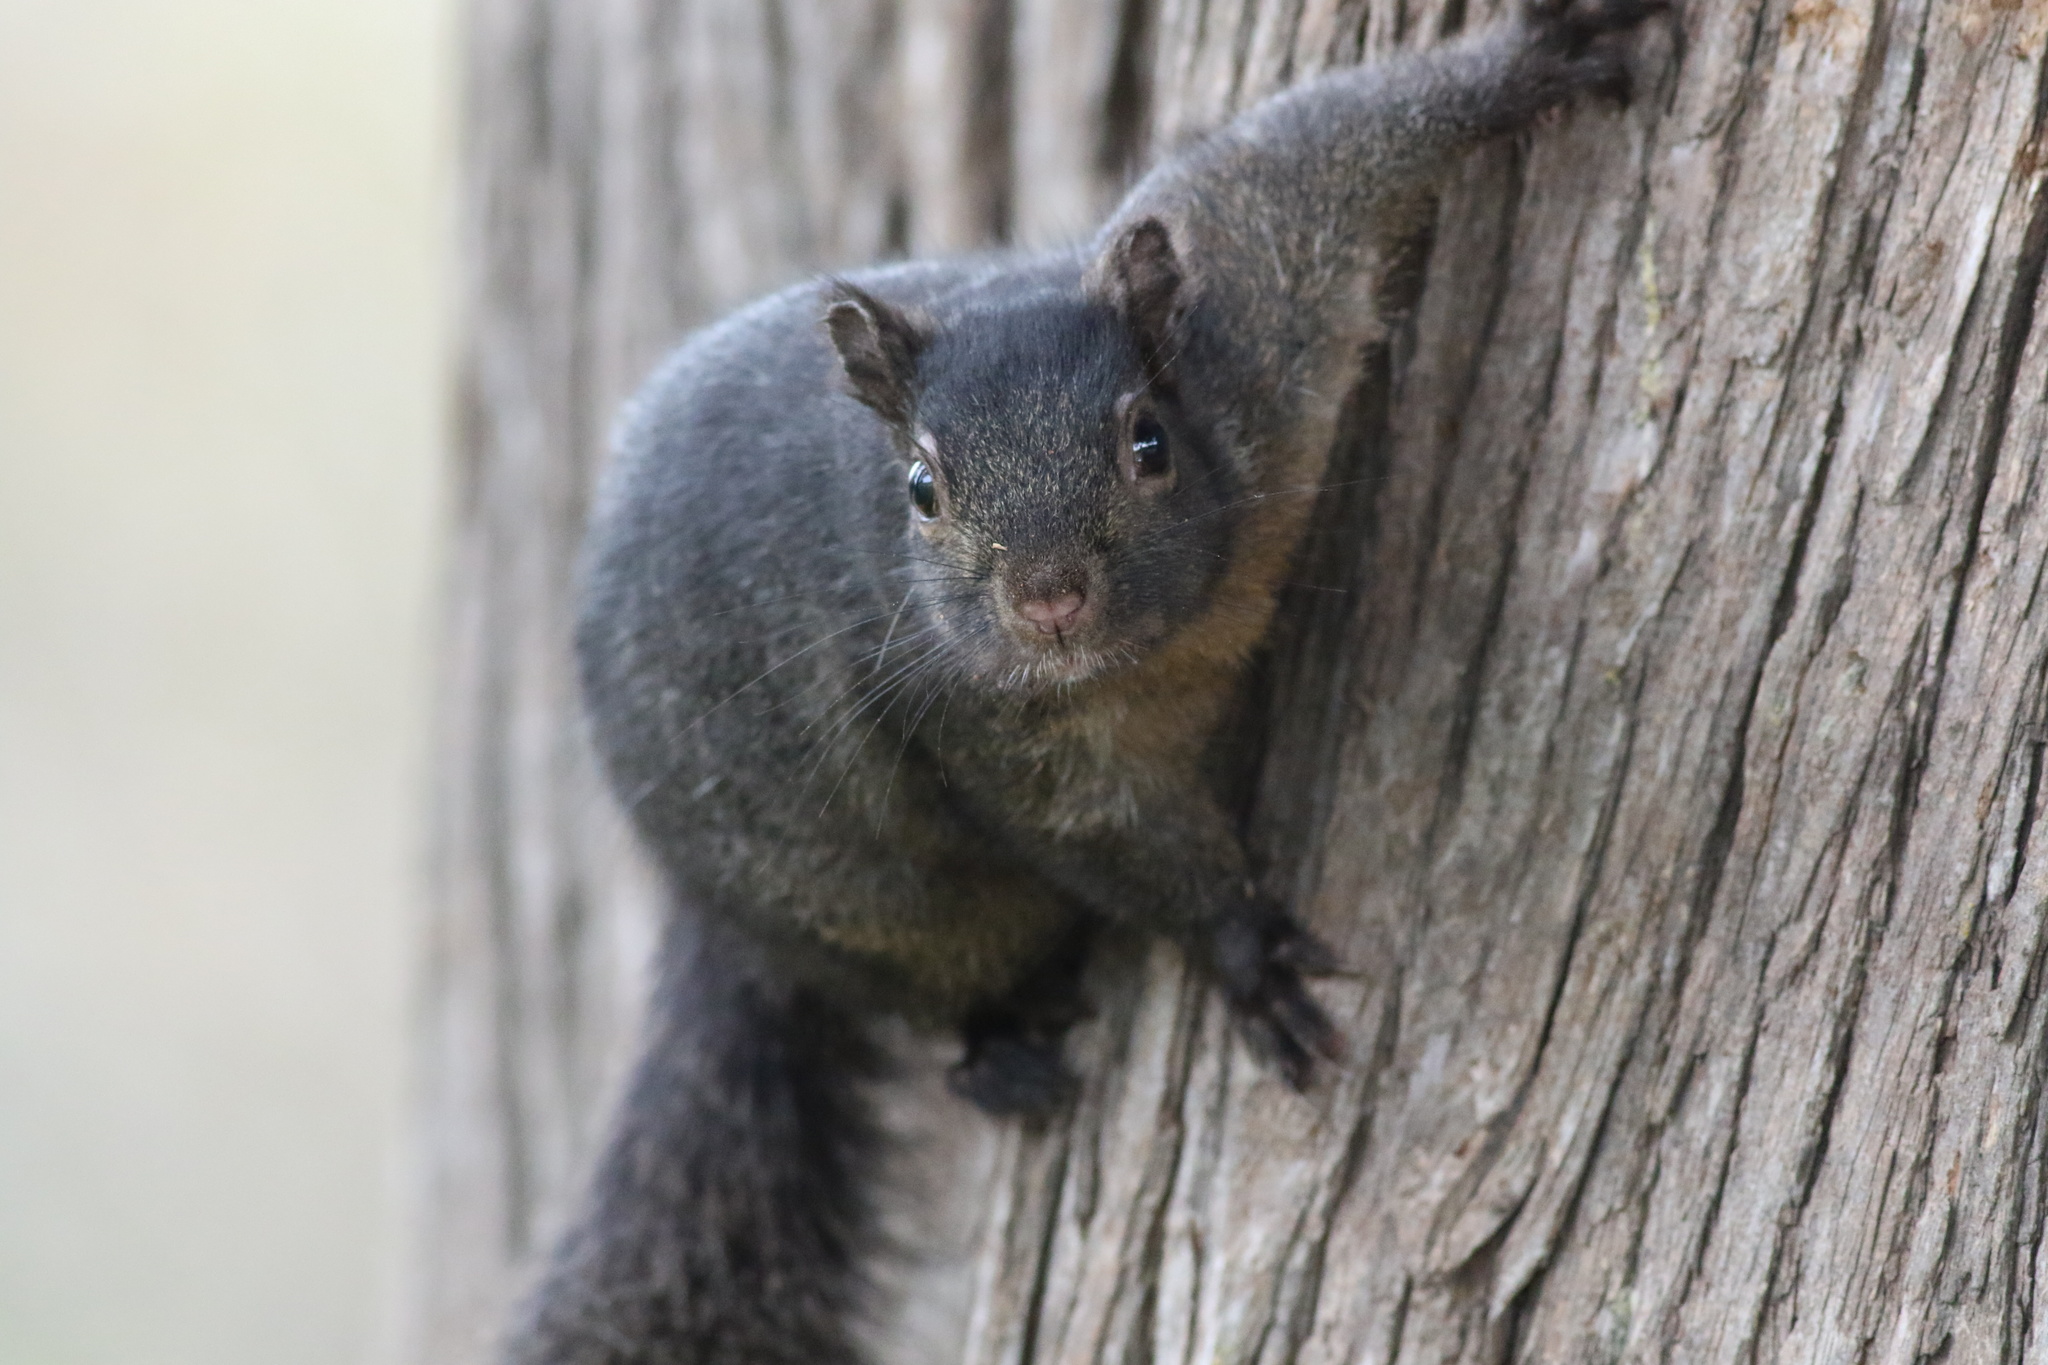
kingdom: Animalia
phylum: Chordata
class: Mammalia
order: Rodentia
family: Sciuridae
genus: Sciurus
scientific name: Sciurus carolinensis
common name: Eastern gray squirrel
